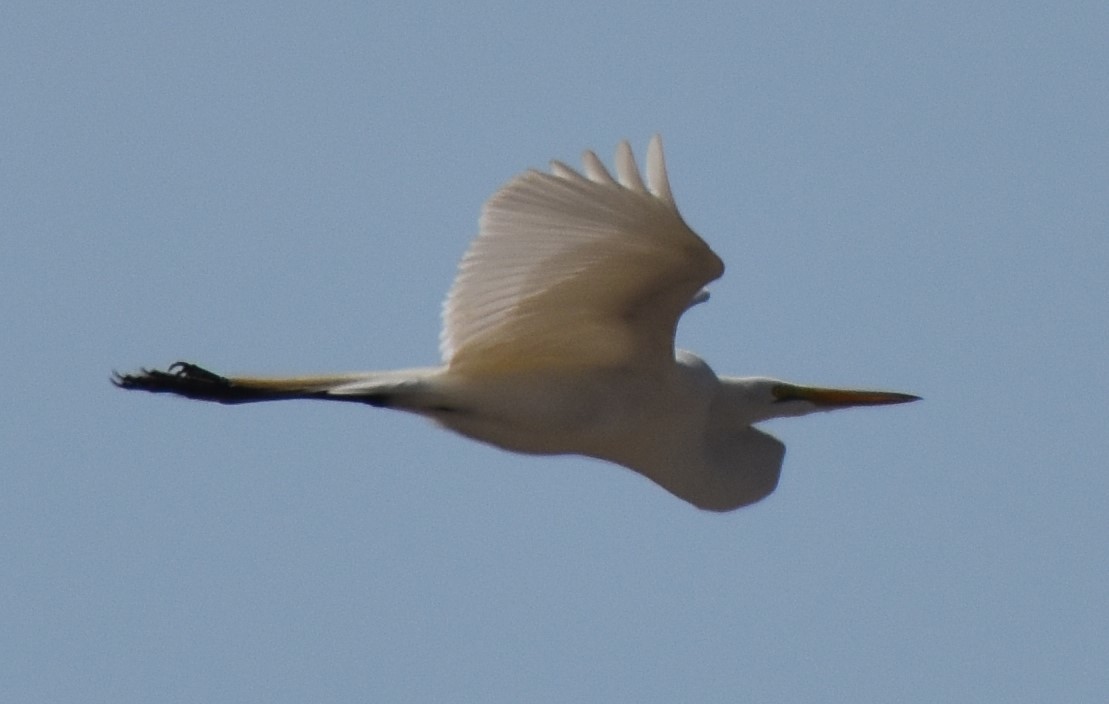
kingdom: Animalia
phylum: Chordata
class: Aves
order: Pelecaniformes
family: Ardeidae
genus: Ardea
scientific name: Ardea alba
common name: Great egret
